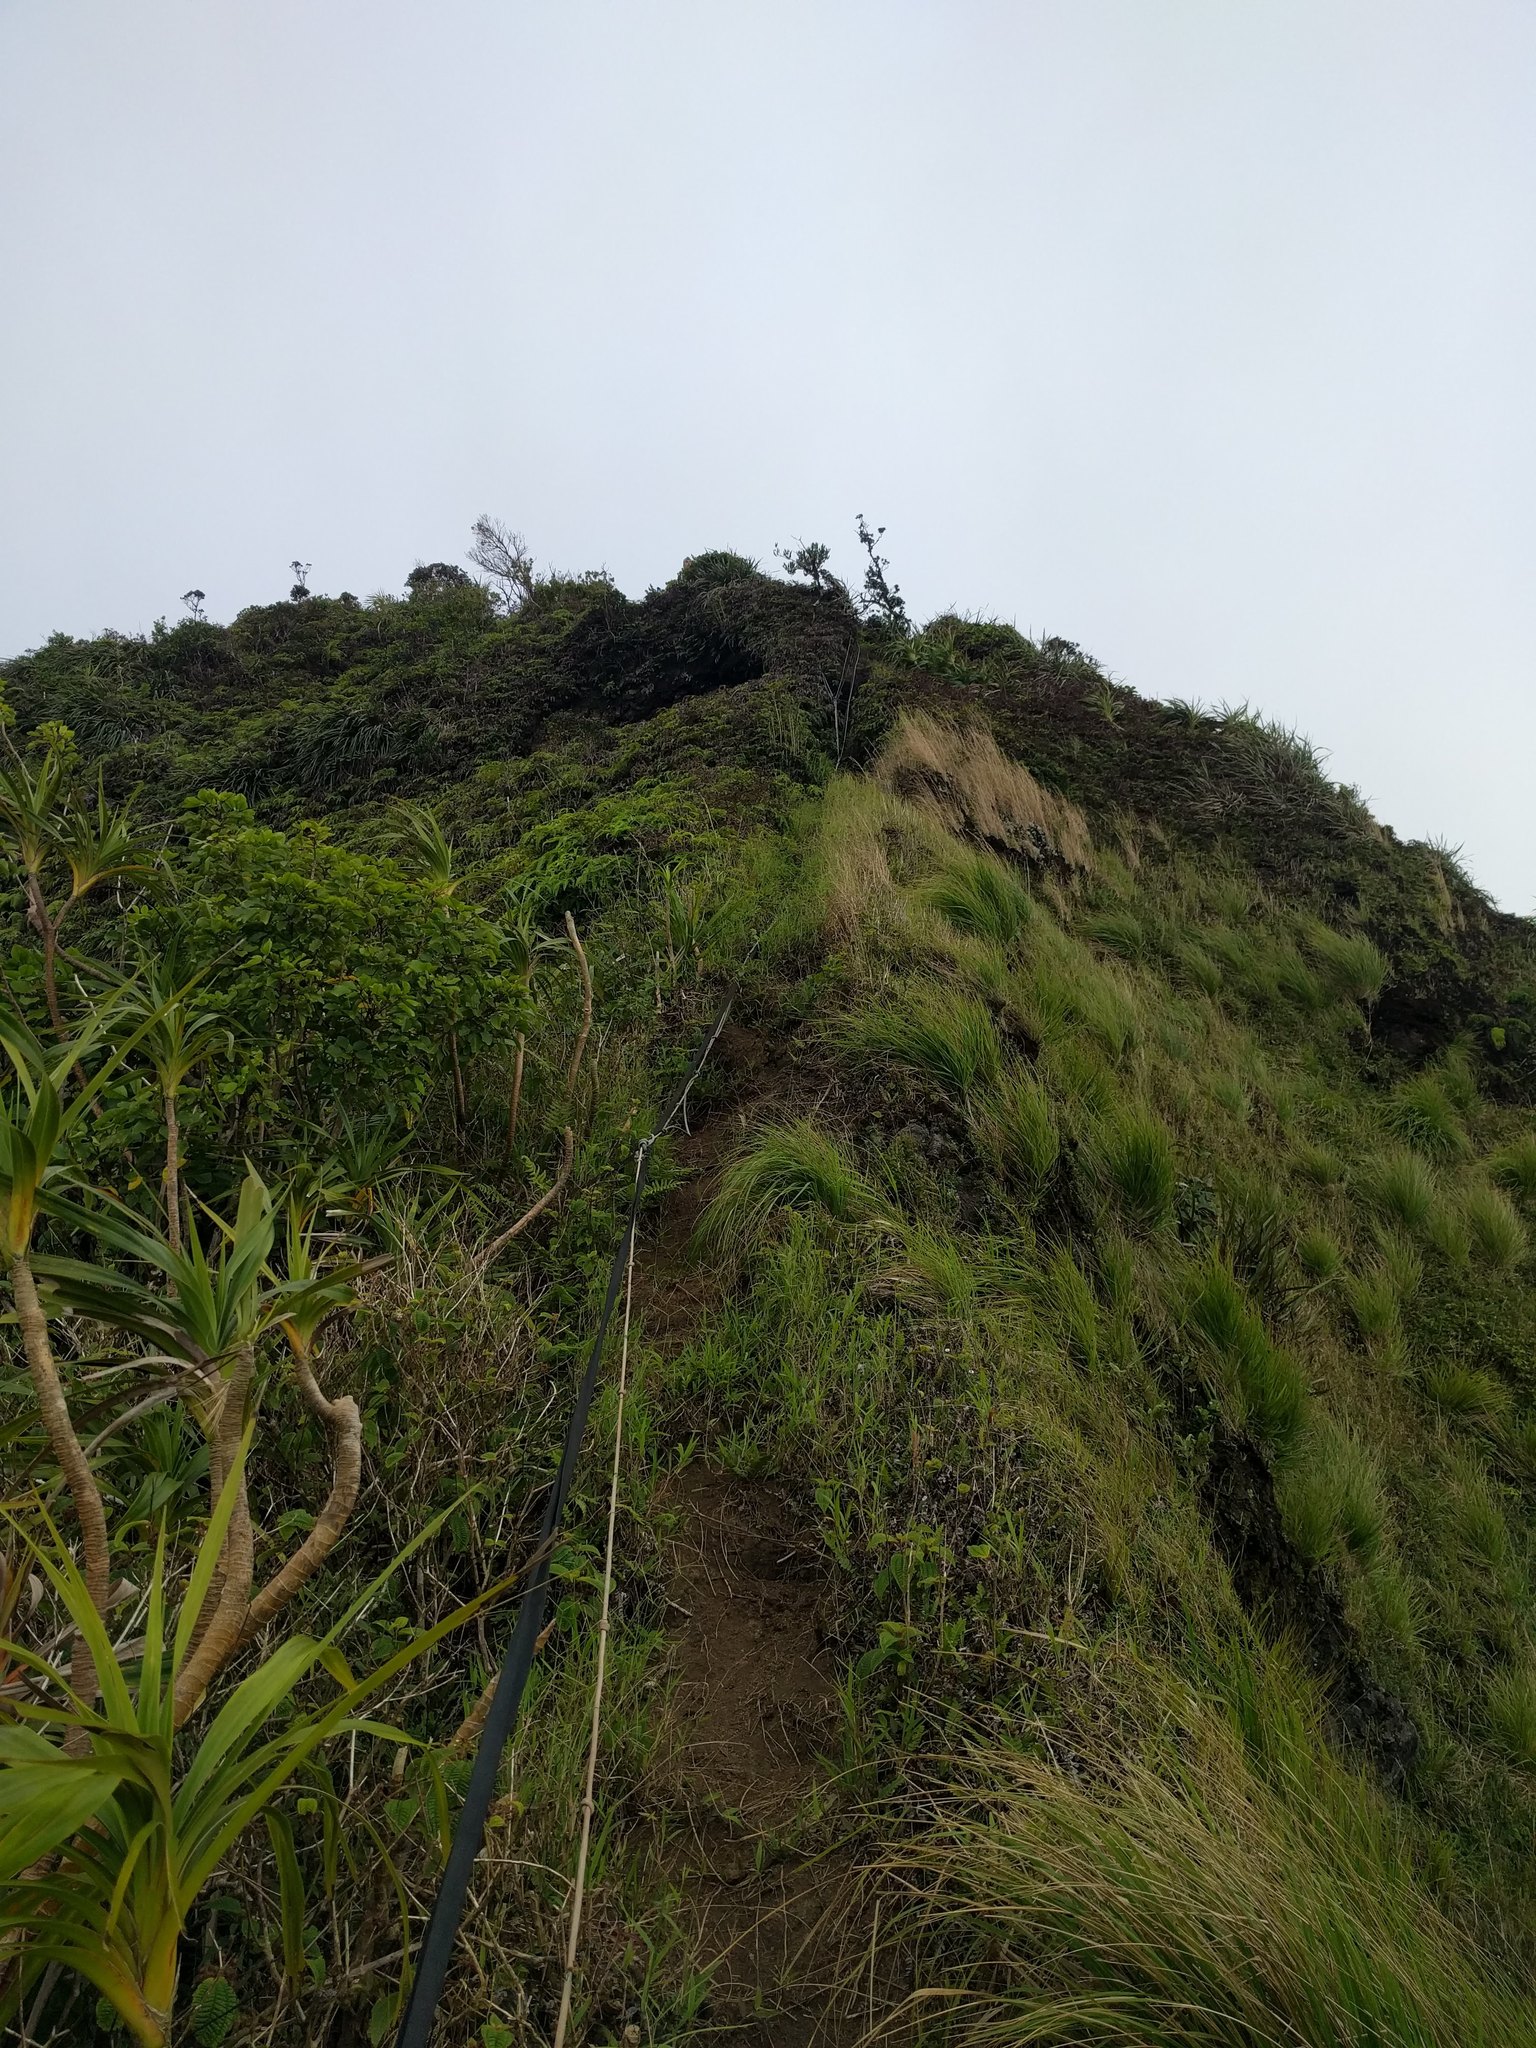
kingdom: Plantae
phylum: Tracheophyta
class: Liliopsida
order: Pandanales
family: Pandanaceae
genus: Freycinetia
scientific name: Freycinetia arborea
